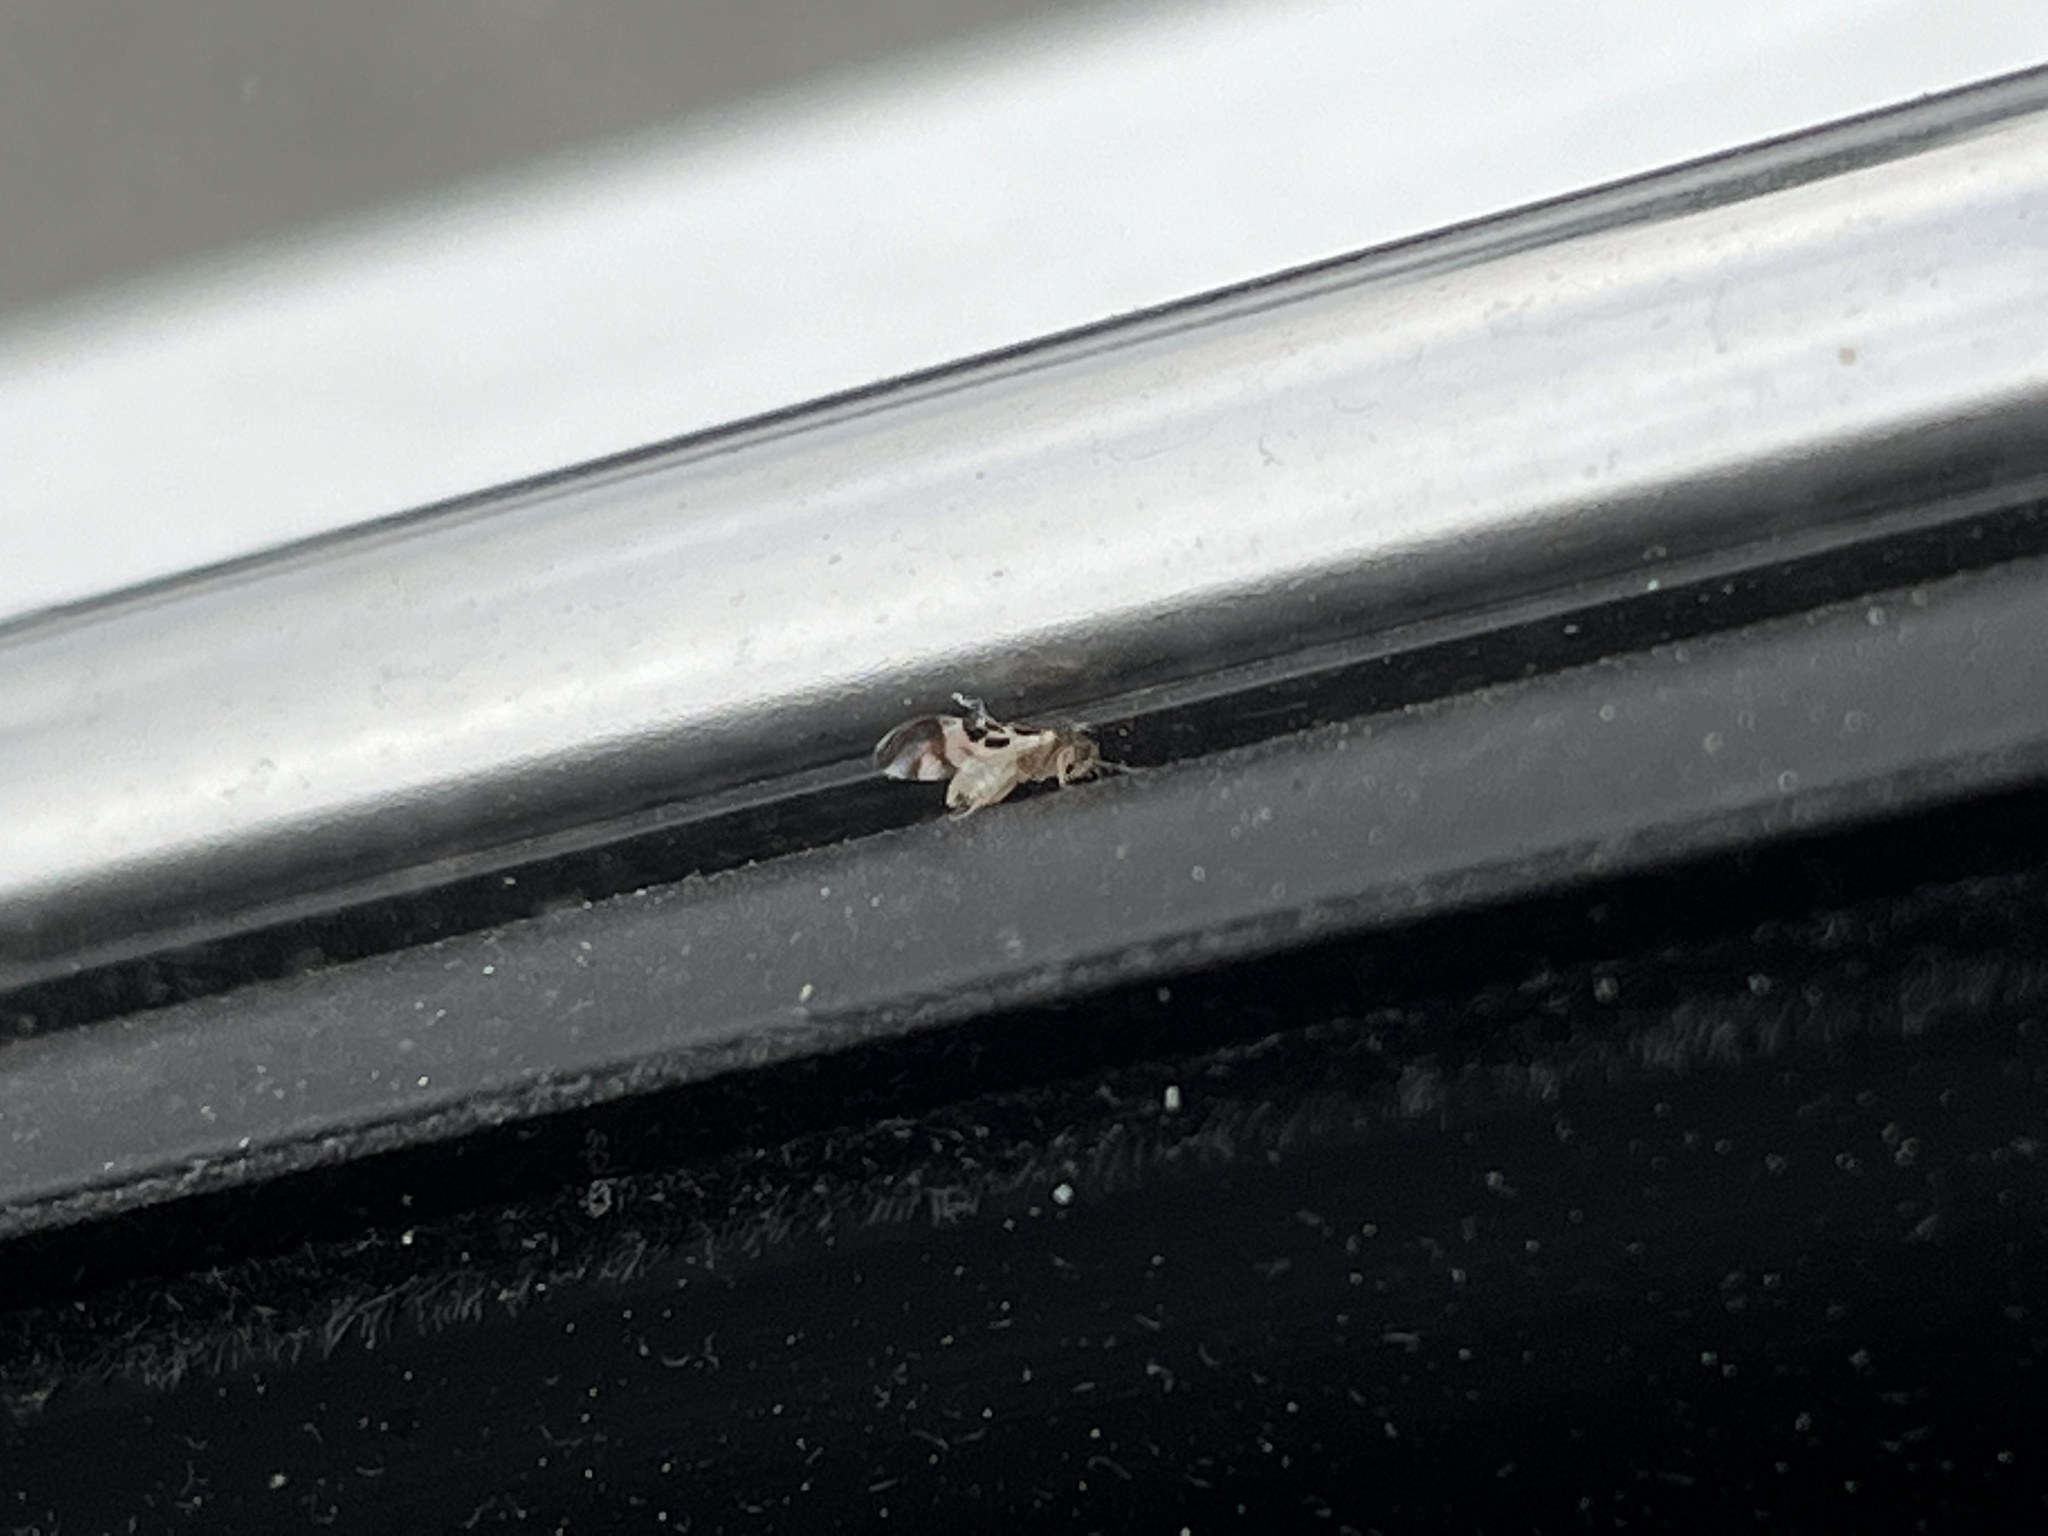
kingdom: Animalia
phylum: Arthropoda
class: Insecta
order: Psocodea
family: Stenopsocidae
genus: Graphopsocus
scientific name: Graphopsocus cruciatus
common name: Lizard bark louse
